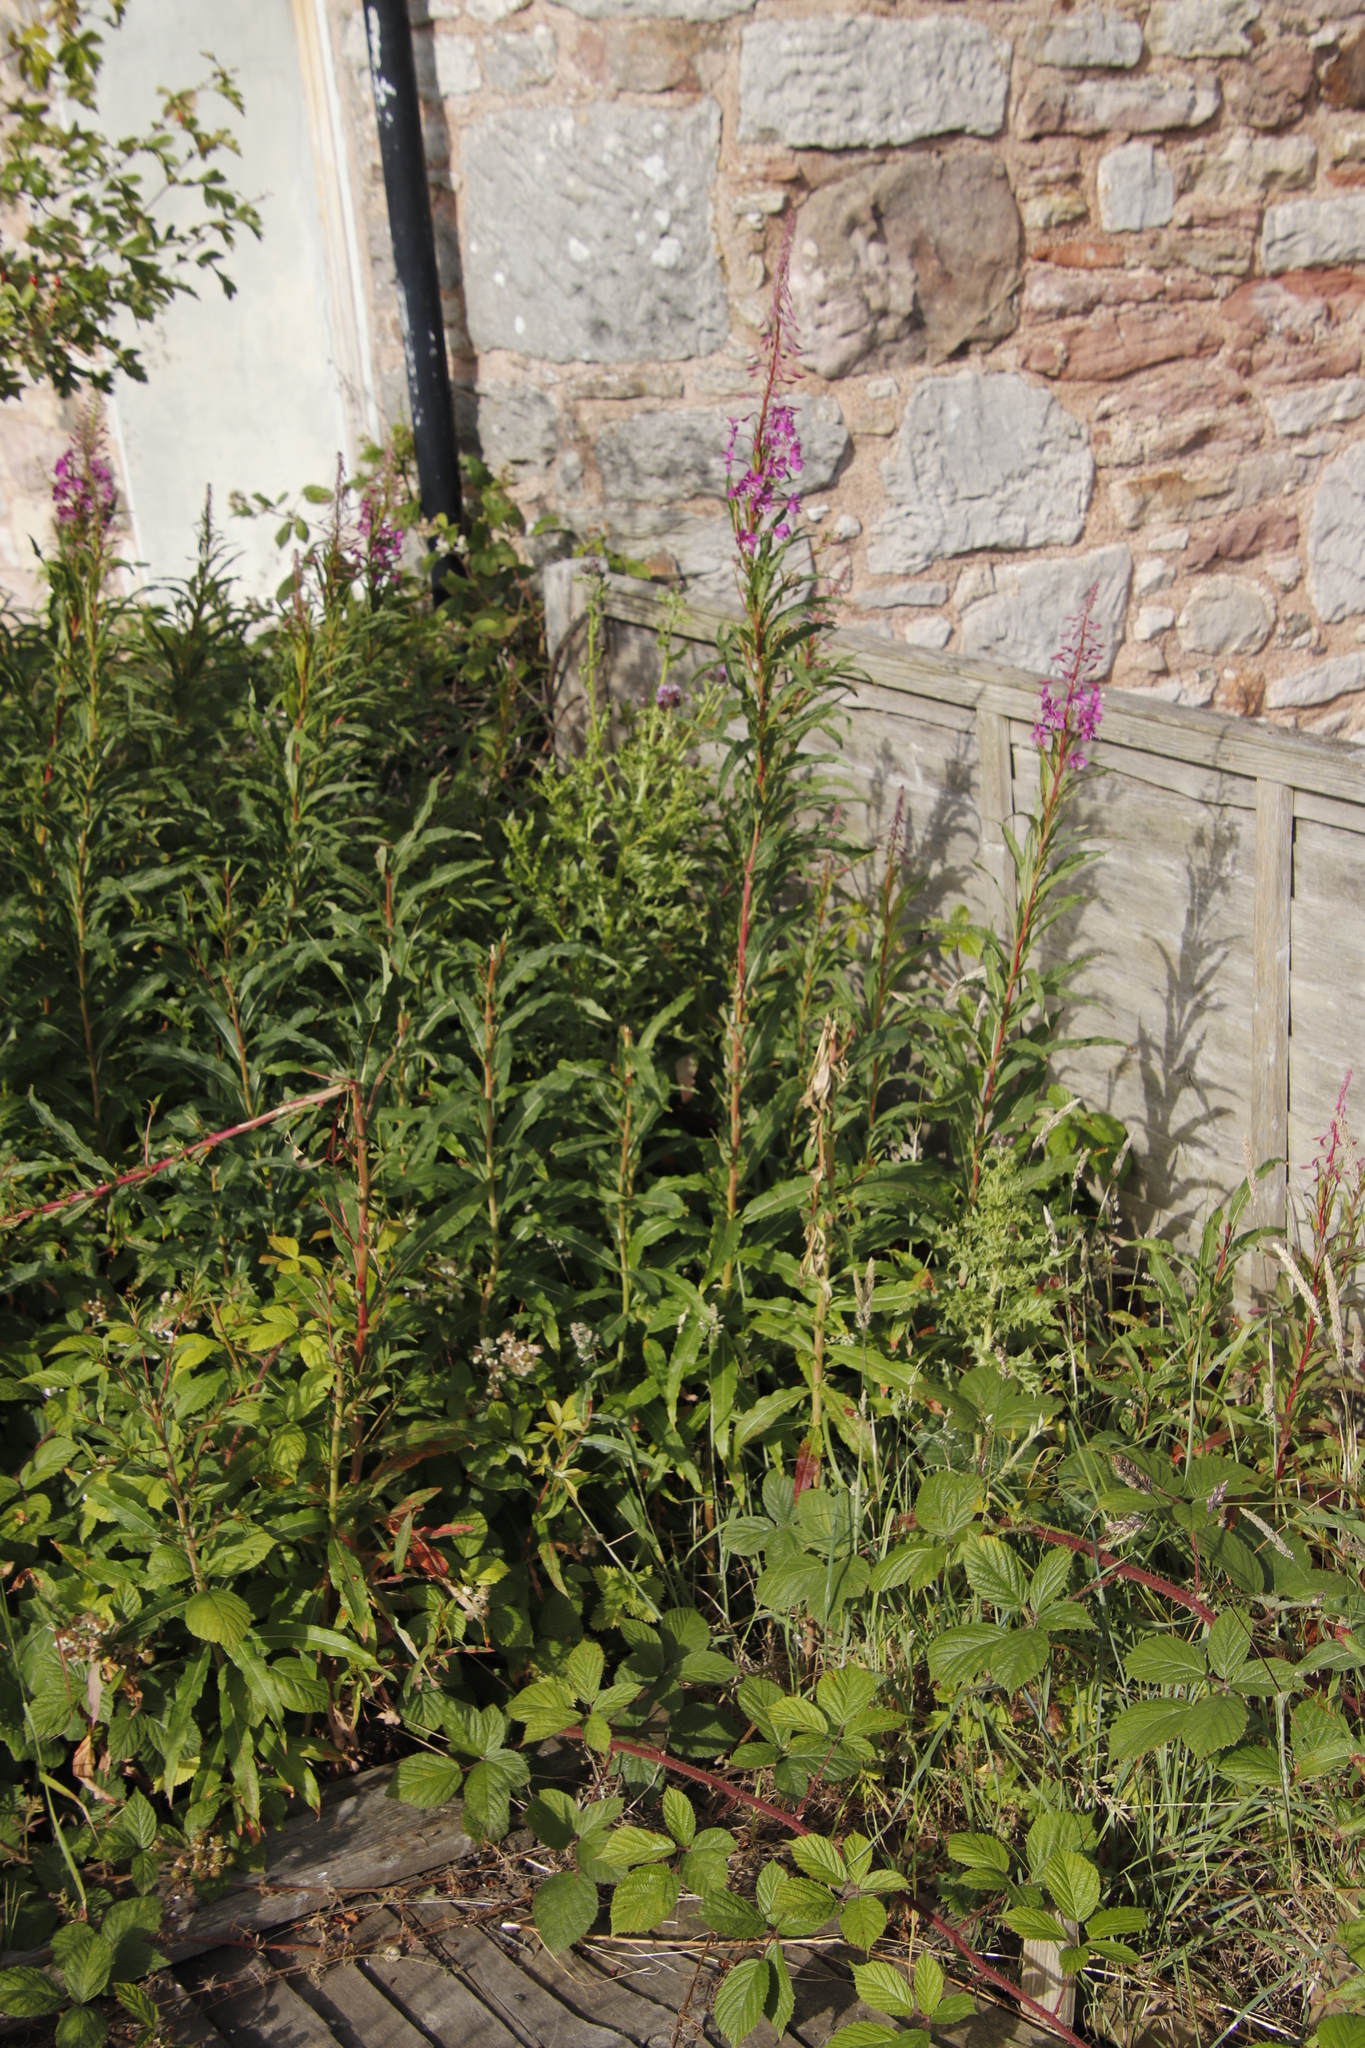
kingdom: Plantae
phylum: Tracheophyta
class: Magnoliopsida
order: Myrtales
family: Onagraceae
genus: Chamaenerion
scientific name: Chamaenerion angustifolium
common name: Fireweed
